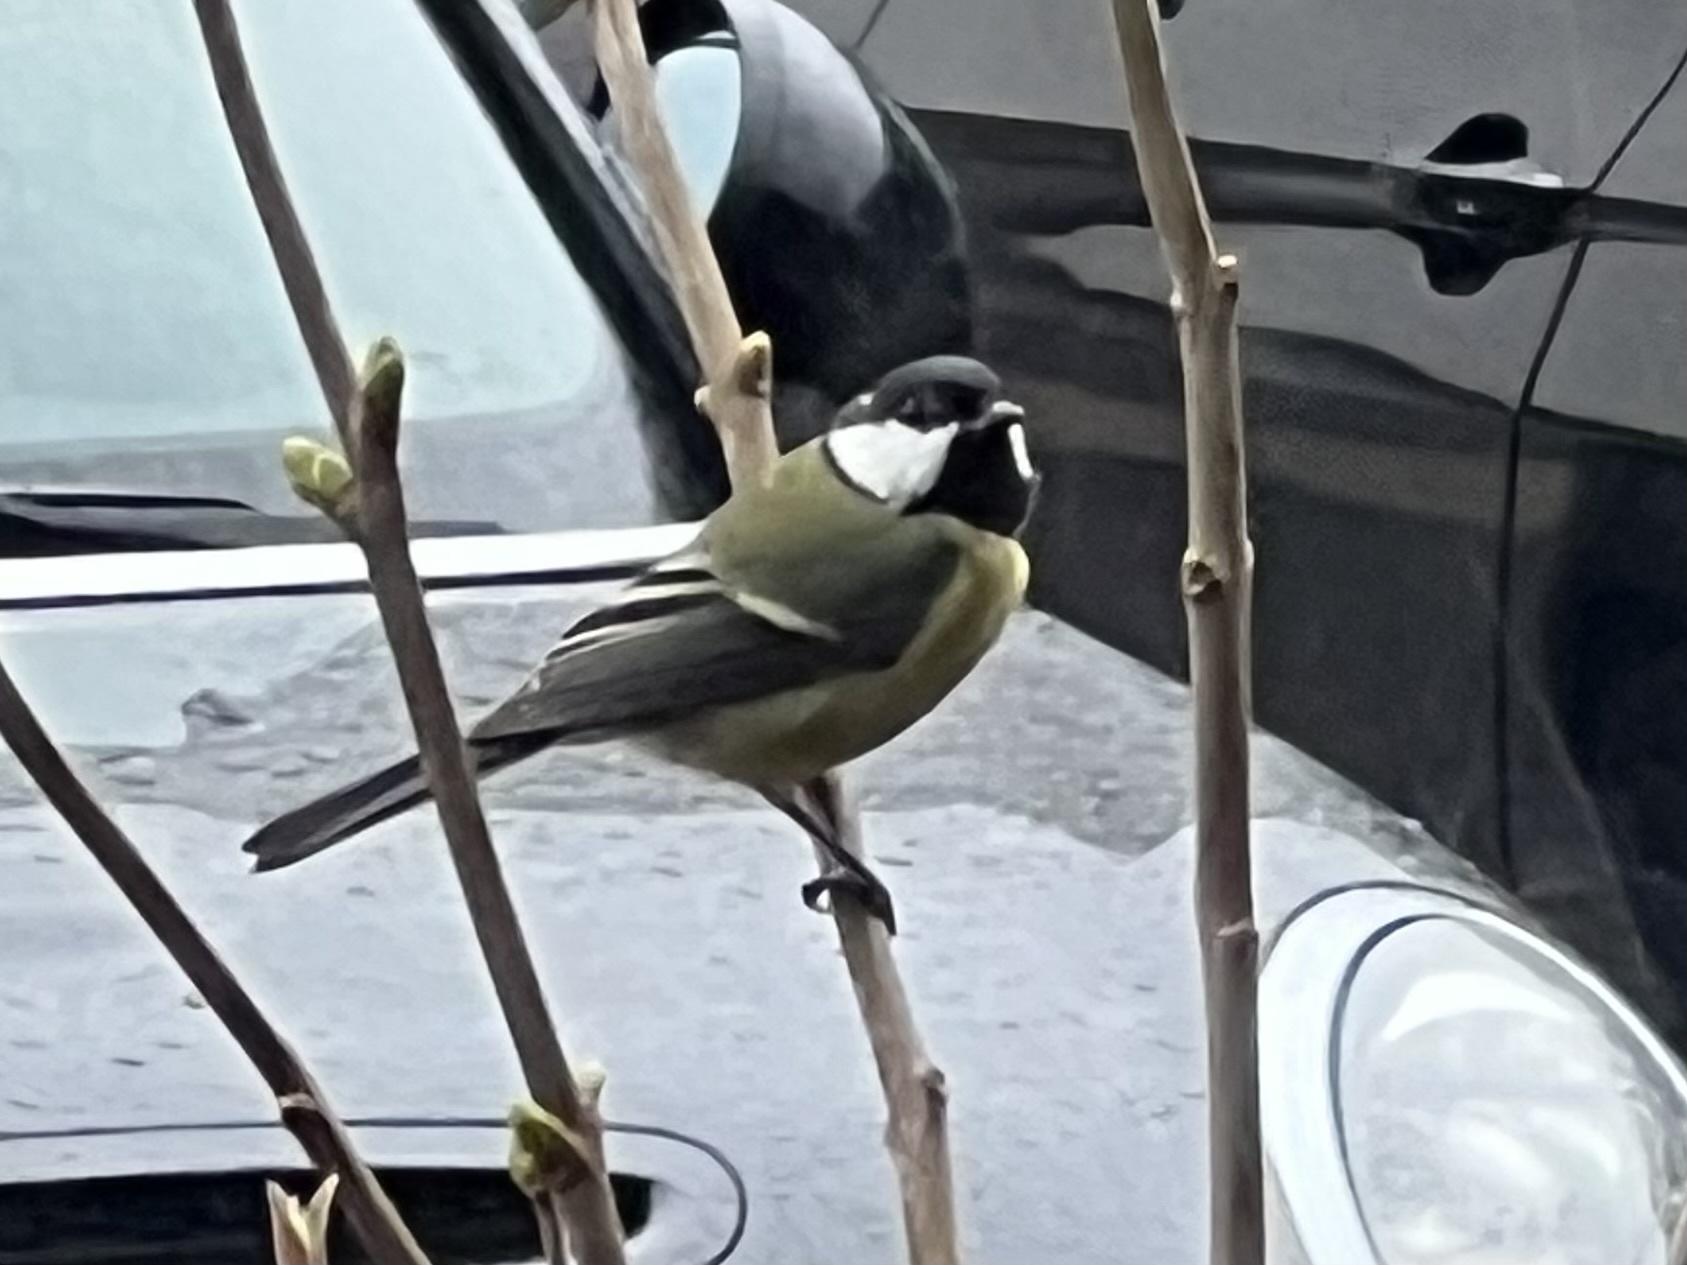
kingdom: Animalia
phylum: Chordata
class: Aves
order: Passeriformes
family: Paridae
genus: Parus
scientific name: Parus major
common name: Great tit
